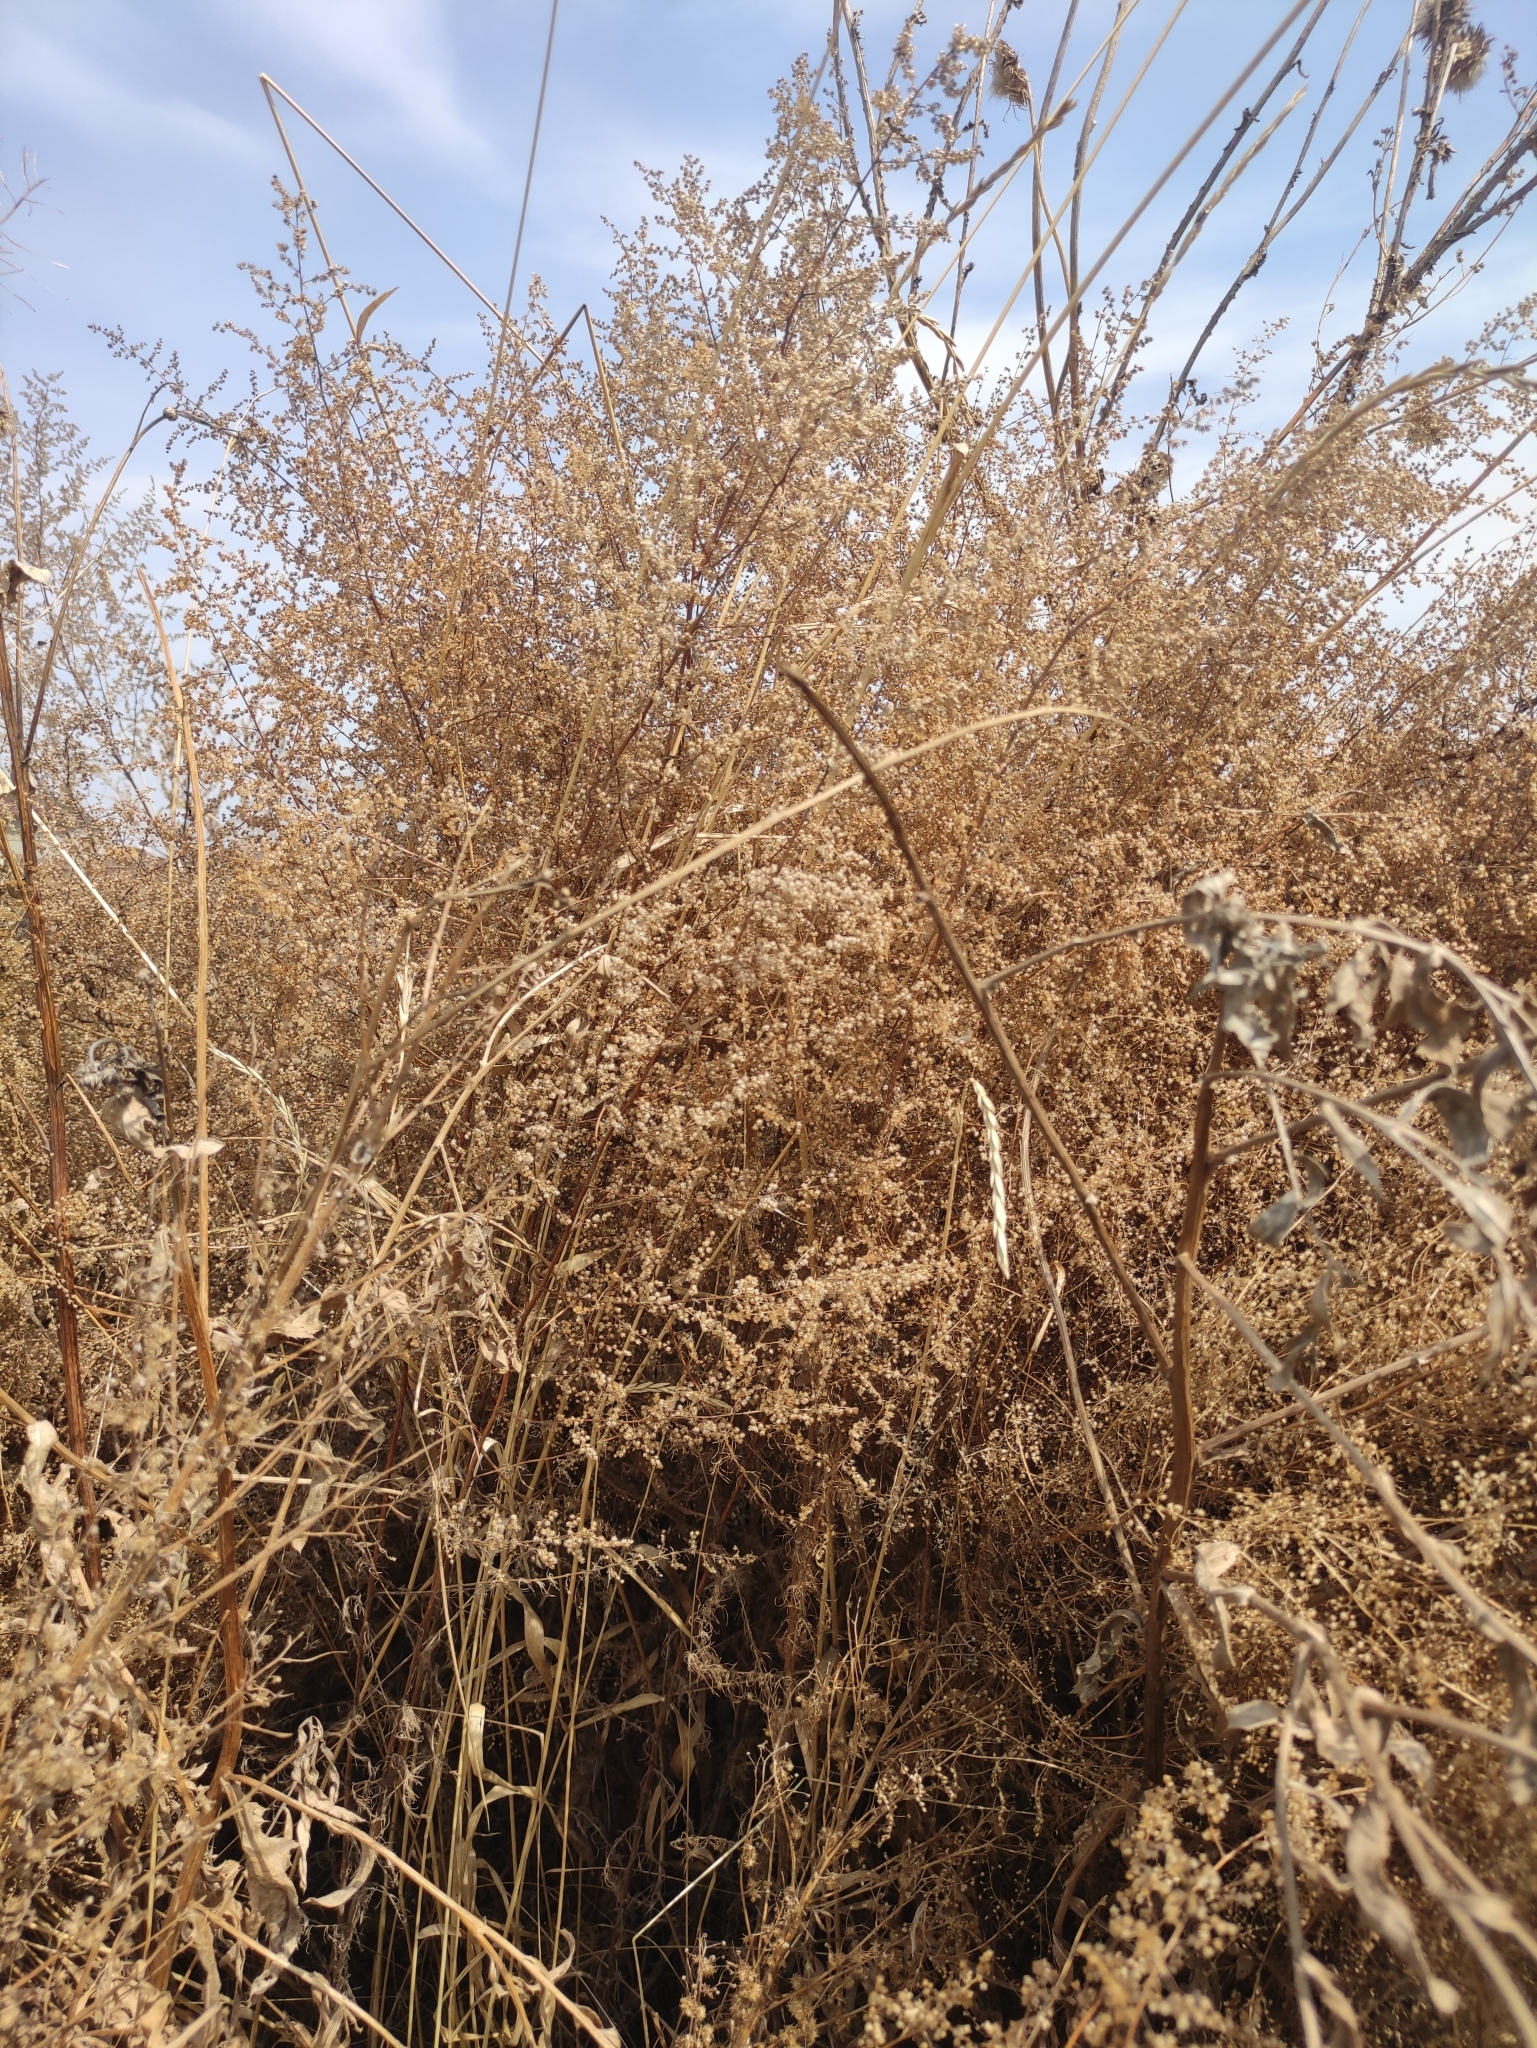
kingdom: Plantae
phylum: Tracheophyta
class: Magnoliopsida
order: Asterales
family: Asteraceae
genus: Artemisia
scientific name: Artemisia scoparia
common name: Redstem wormwood
